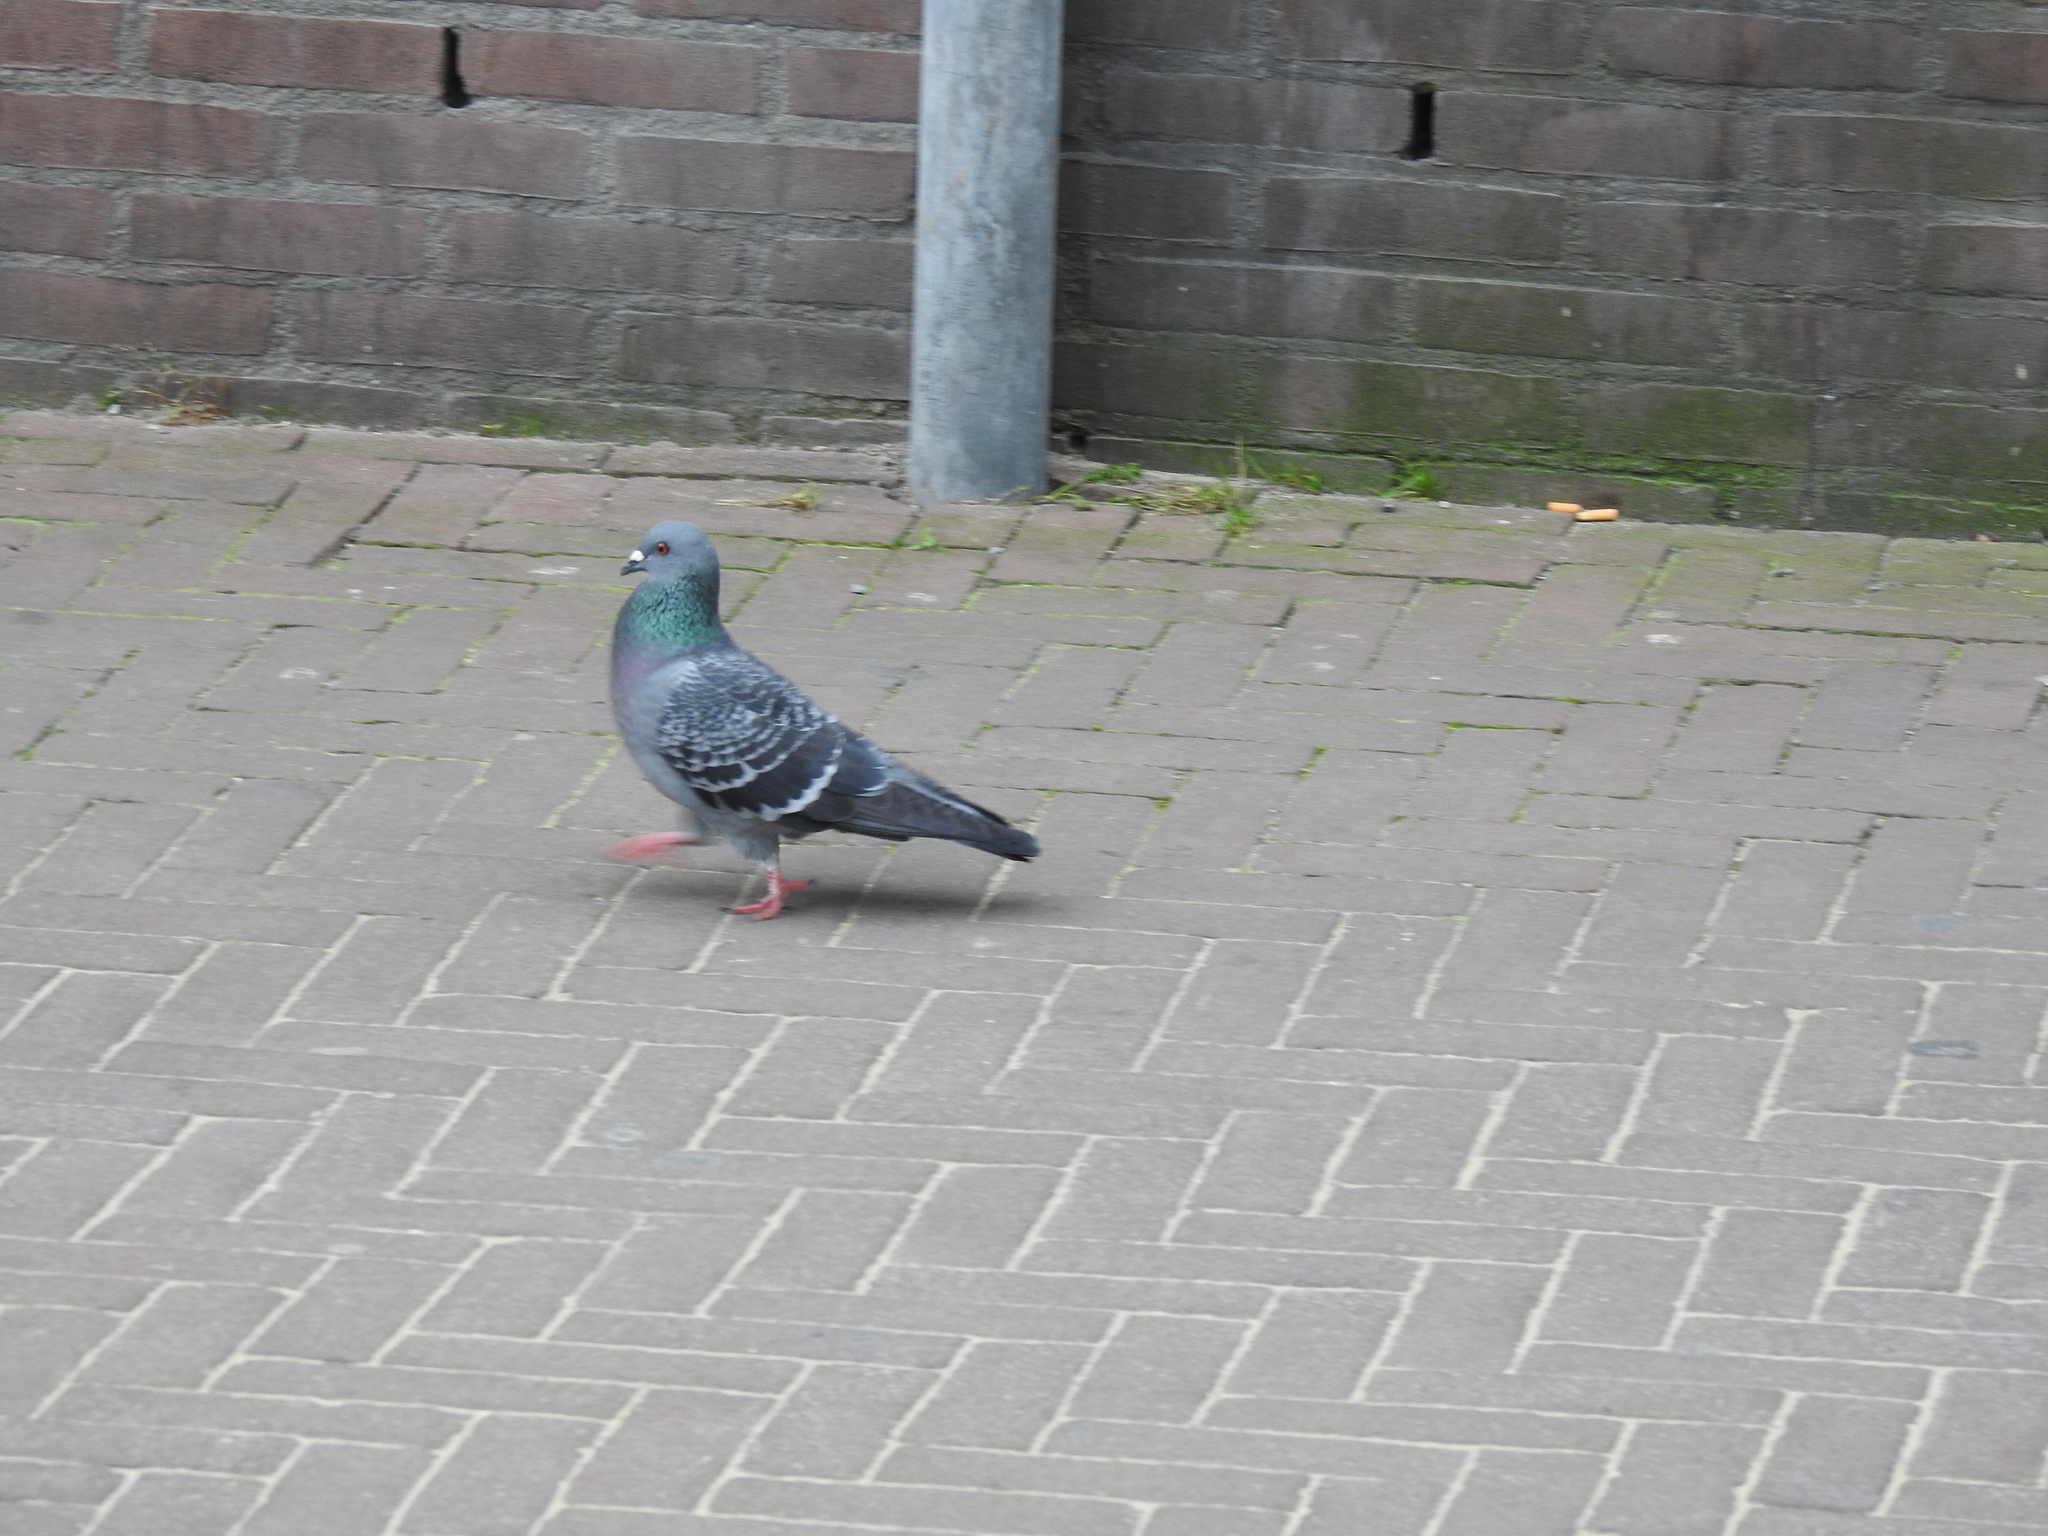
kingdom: Animalia
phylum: Chordata
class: Aves
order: Columbiformes
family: Columbidae
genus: Columba
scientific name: Columba livia
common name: Rock pigeon
